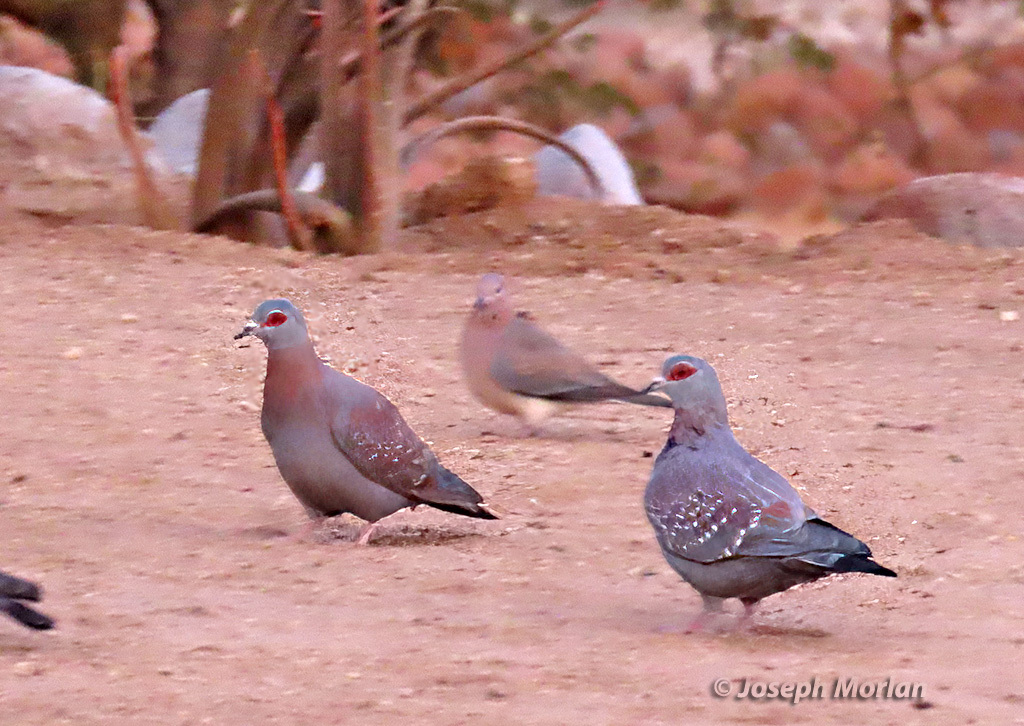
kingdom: Animalia
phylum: Chordata
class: Aves
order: Columbiformes
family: Columbidae
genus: Columba
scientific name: Columba guinea
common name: Speckled pigeon
